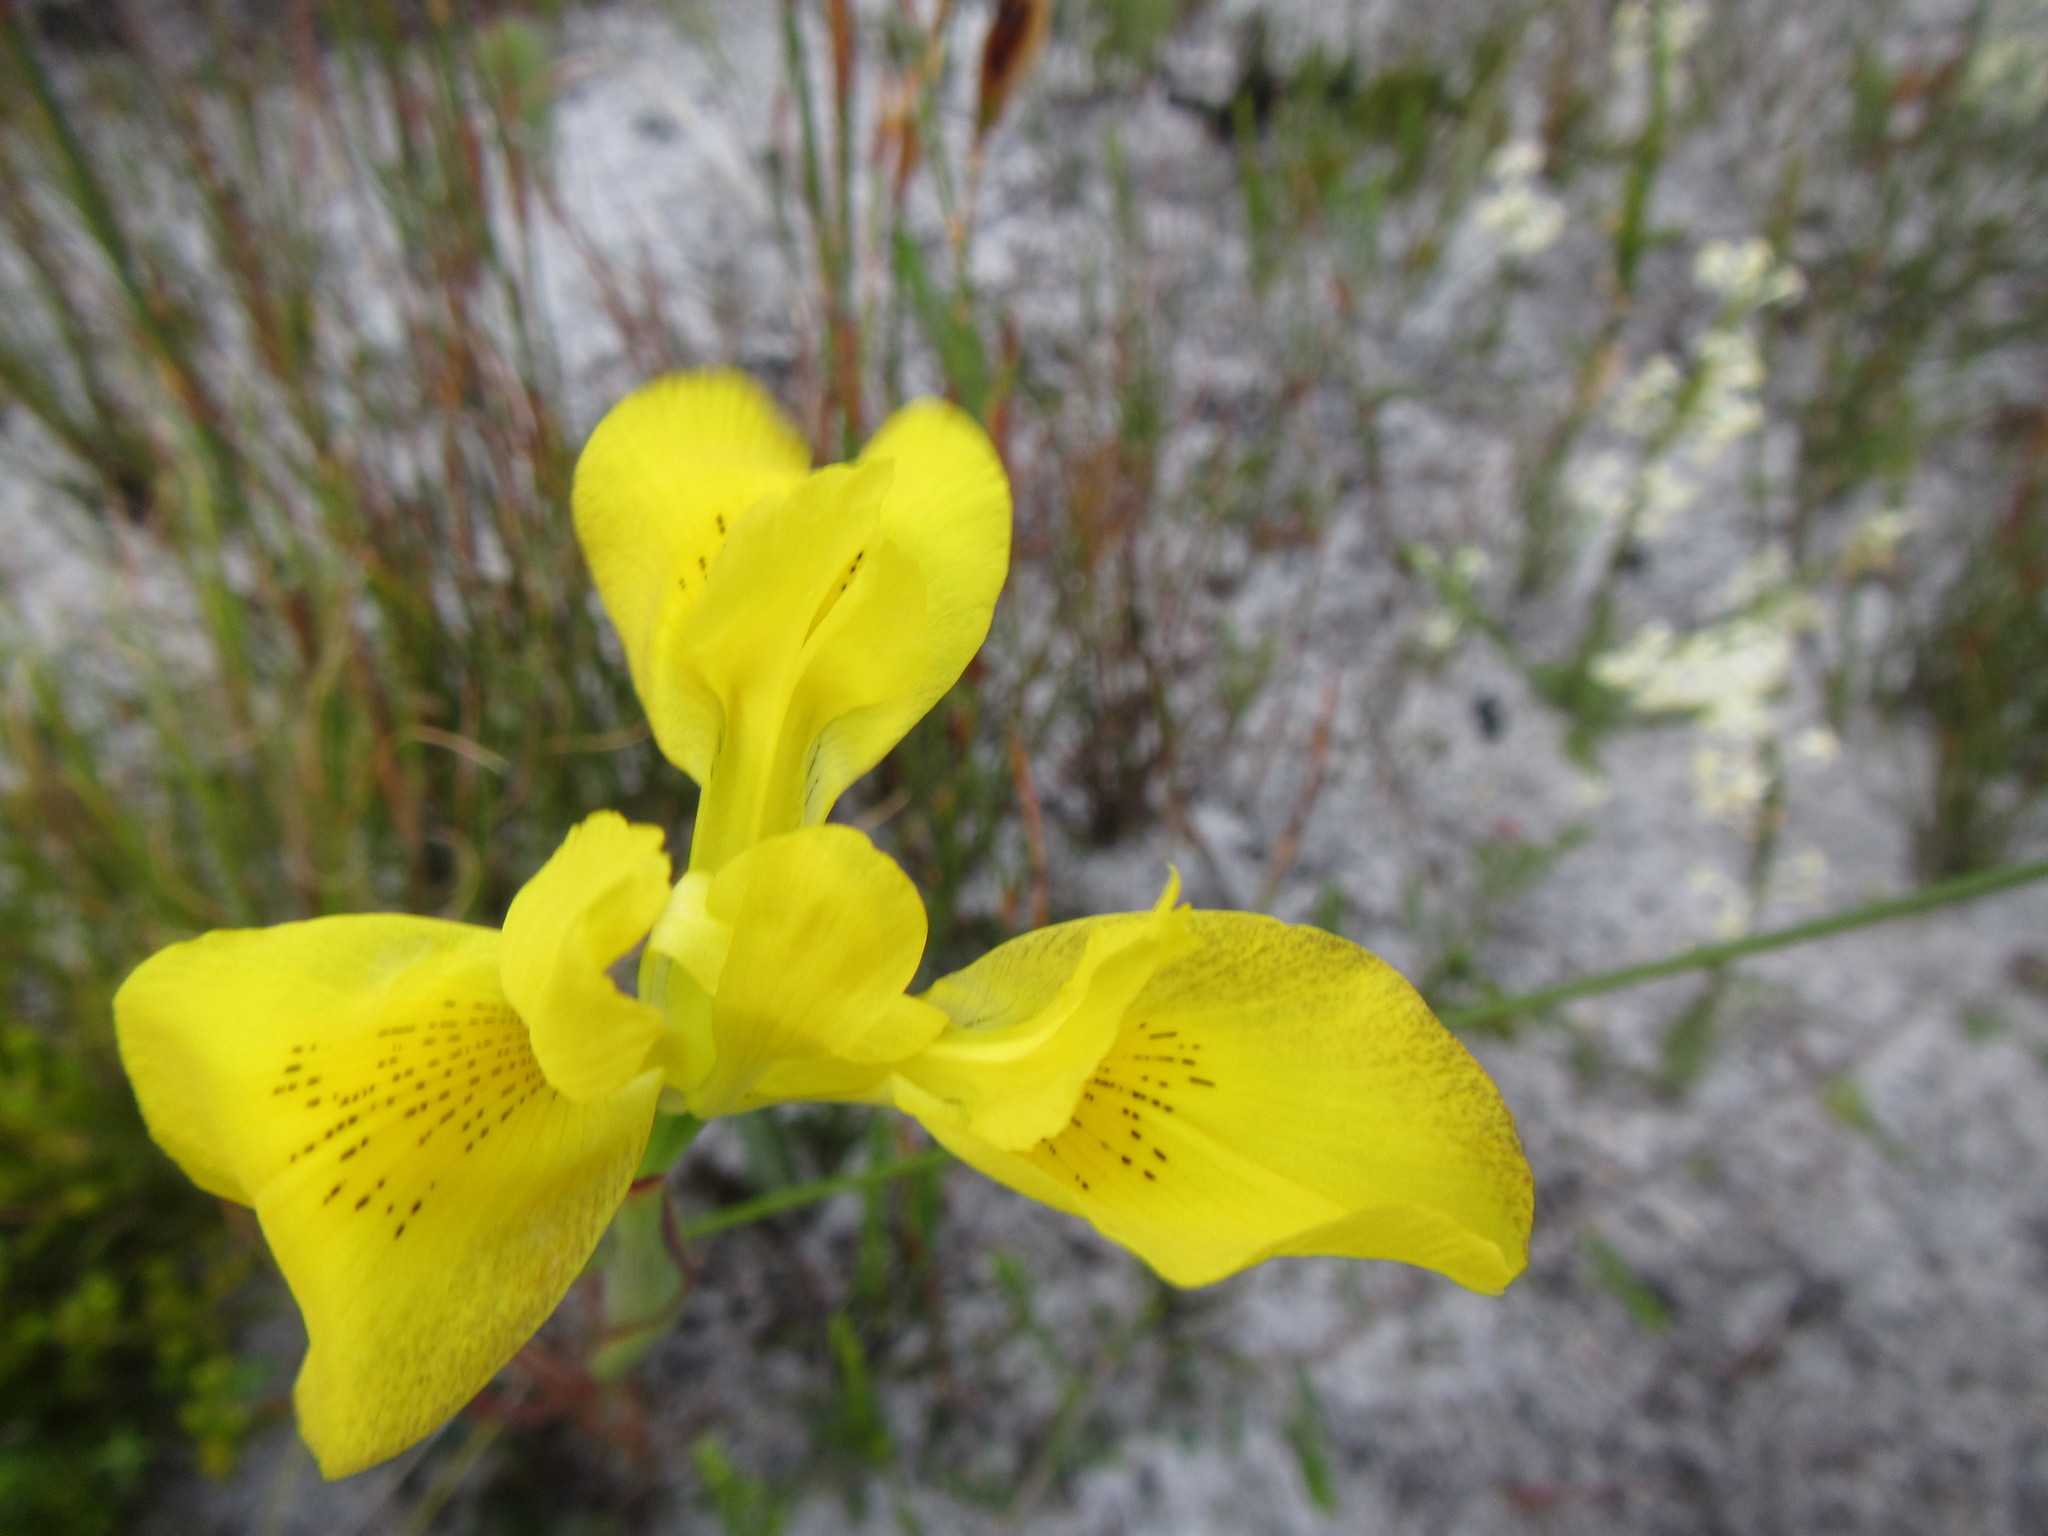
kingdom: Plantae
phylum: Tracheophyta
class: Liliopsida
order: Asparagales
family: Iridaceae
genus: Moraea
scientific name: Moraea neglecta
